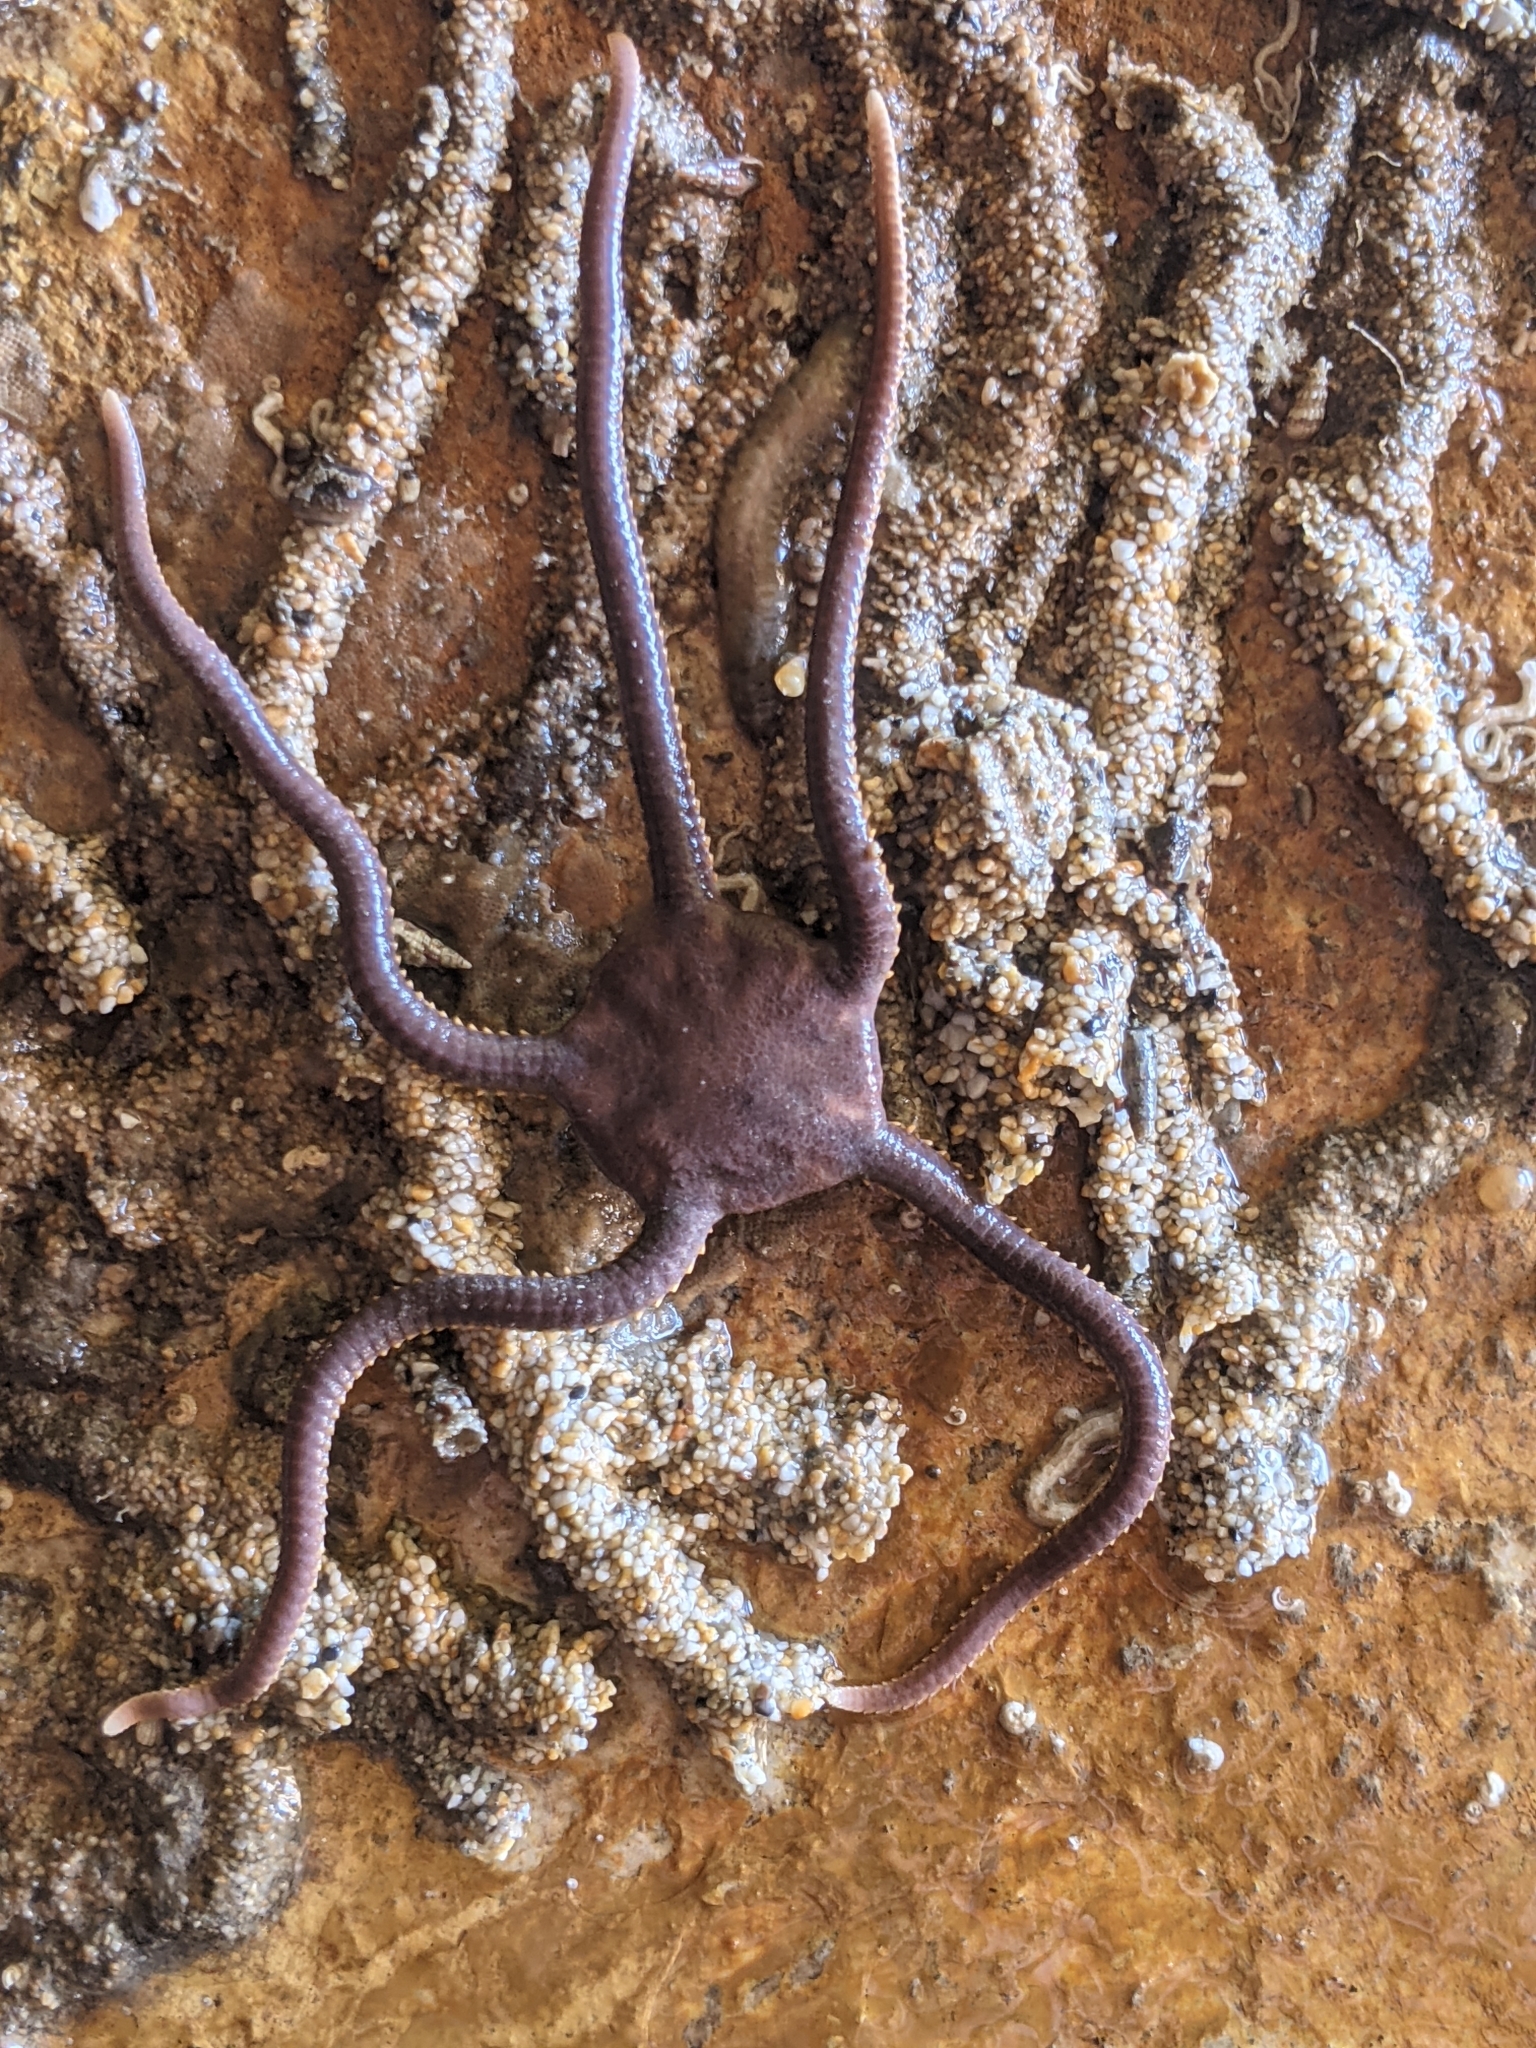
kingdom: Animalia
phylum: Echinodermata
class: Ophiuroidea
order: Amphilepidida
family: Hemieuryalidae
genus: Ophioplocus
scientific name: Ophioplocus esmarki
